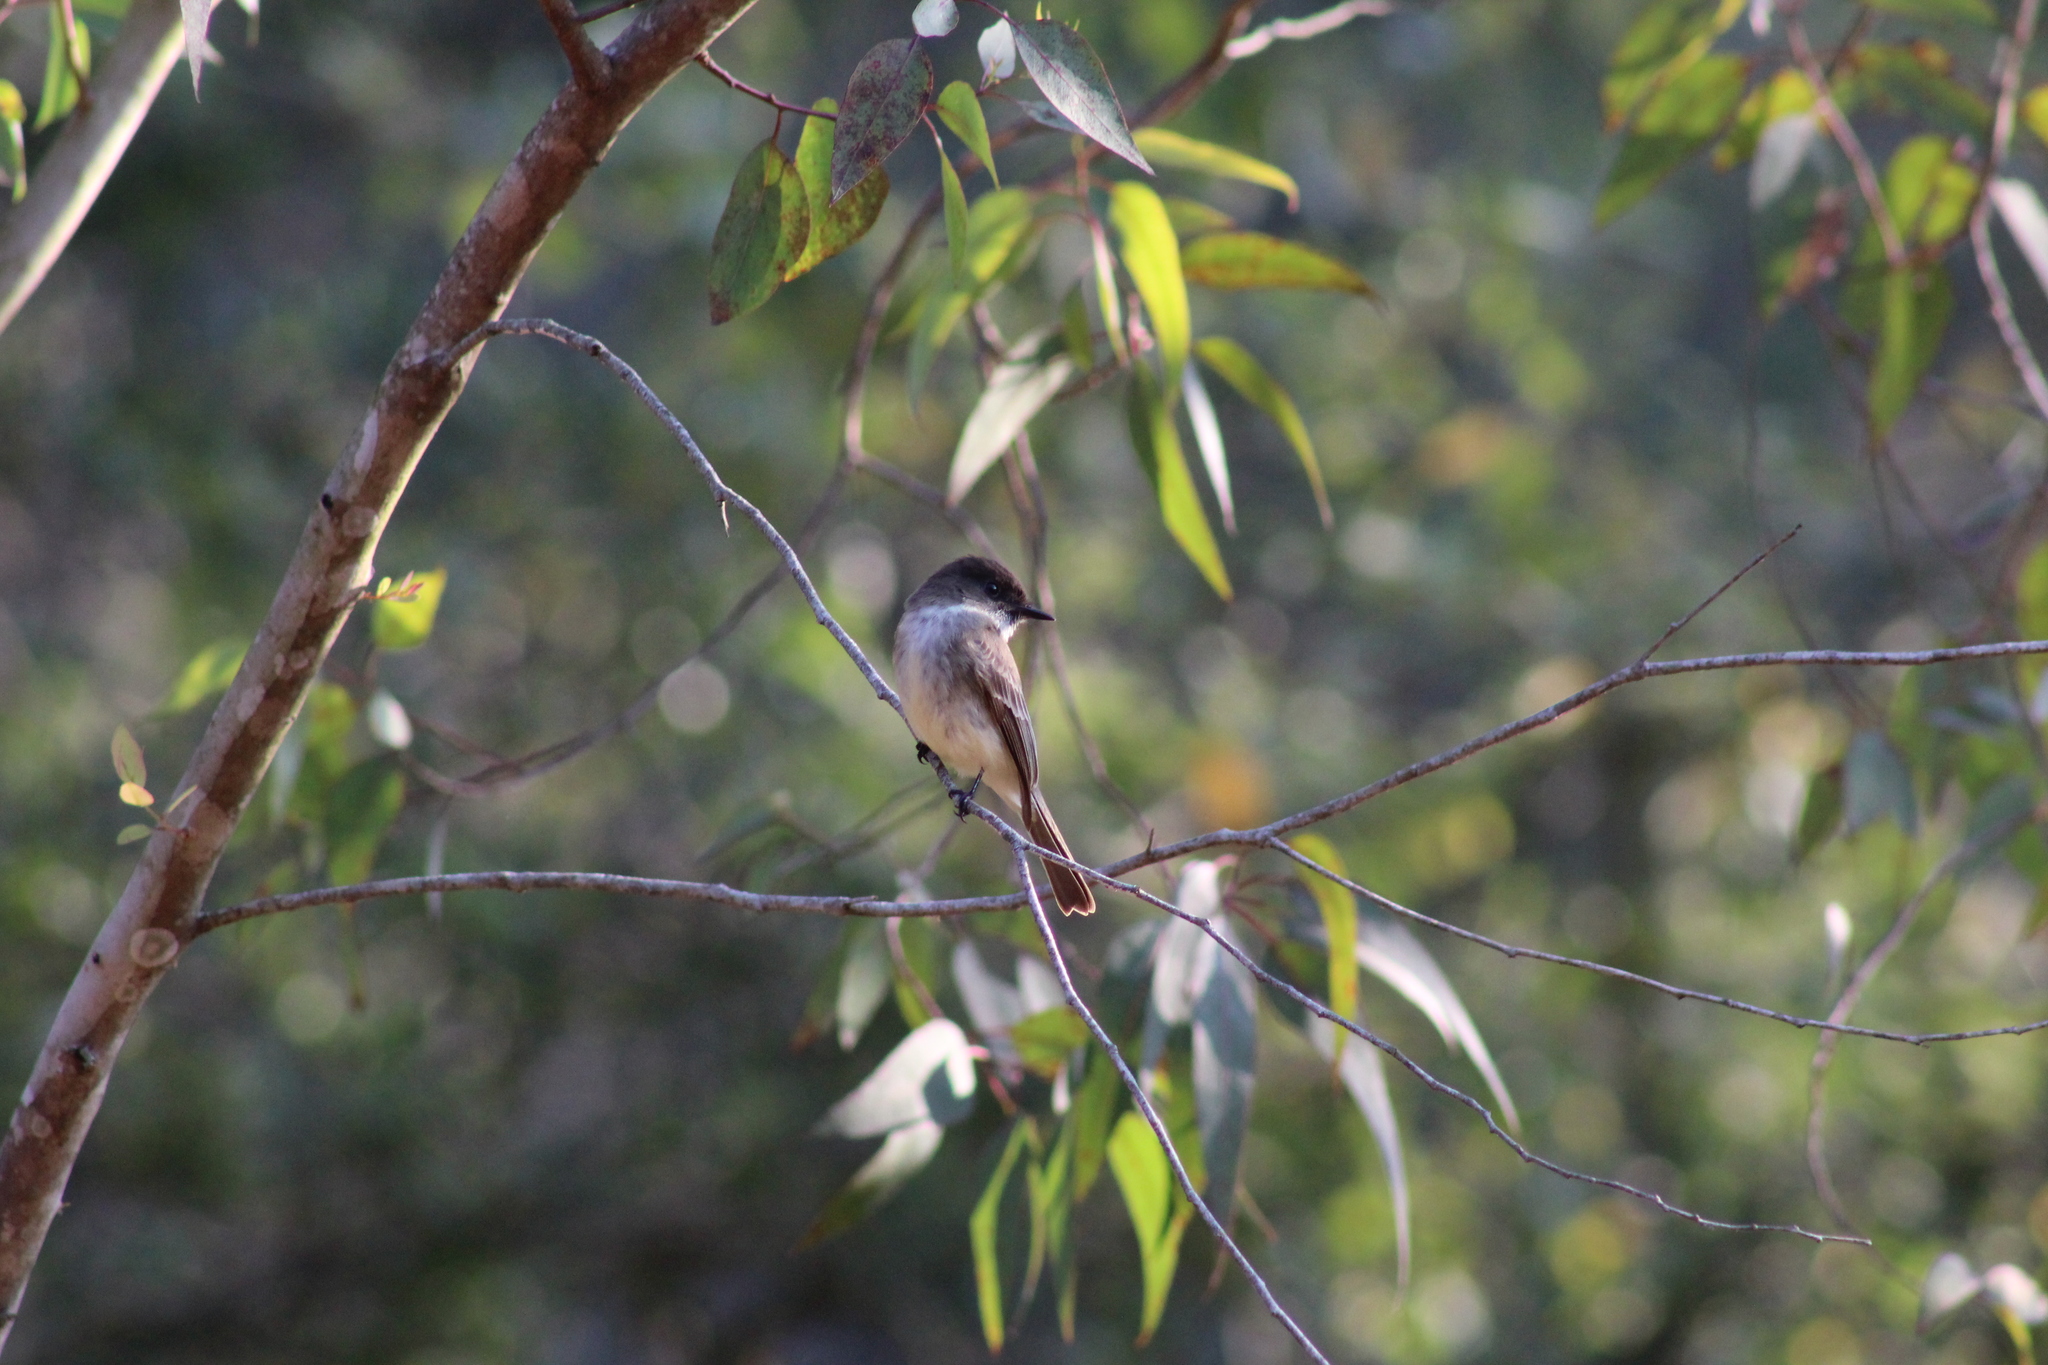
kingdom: Animalia
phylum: Chordata
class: Aves
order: Passeriformes
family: Tyrannidae
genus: Sayornis
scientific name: Sayornis phoebe
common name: Eastern phoebe
